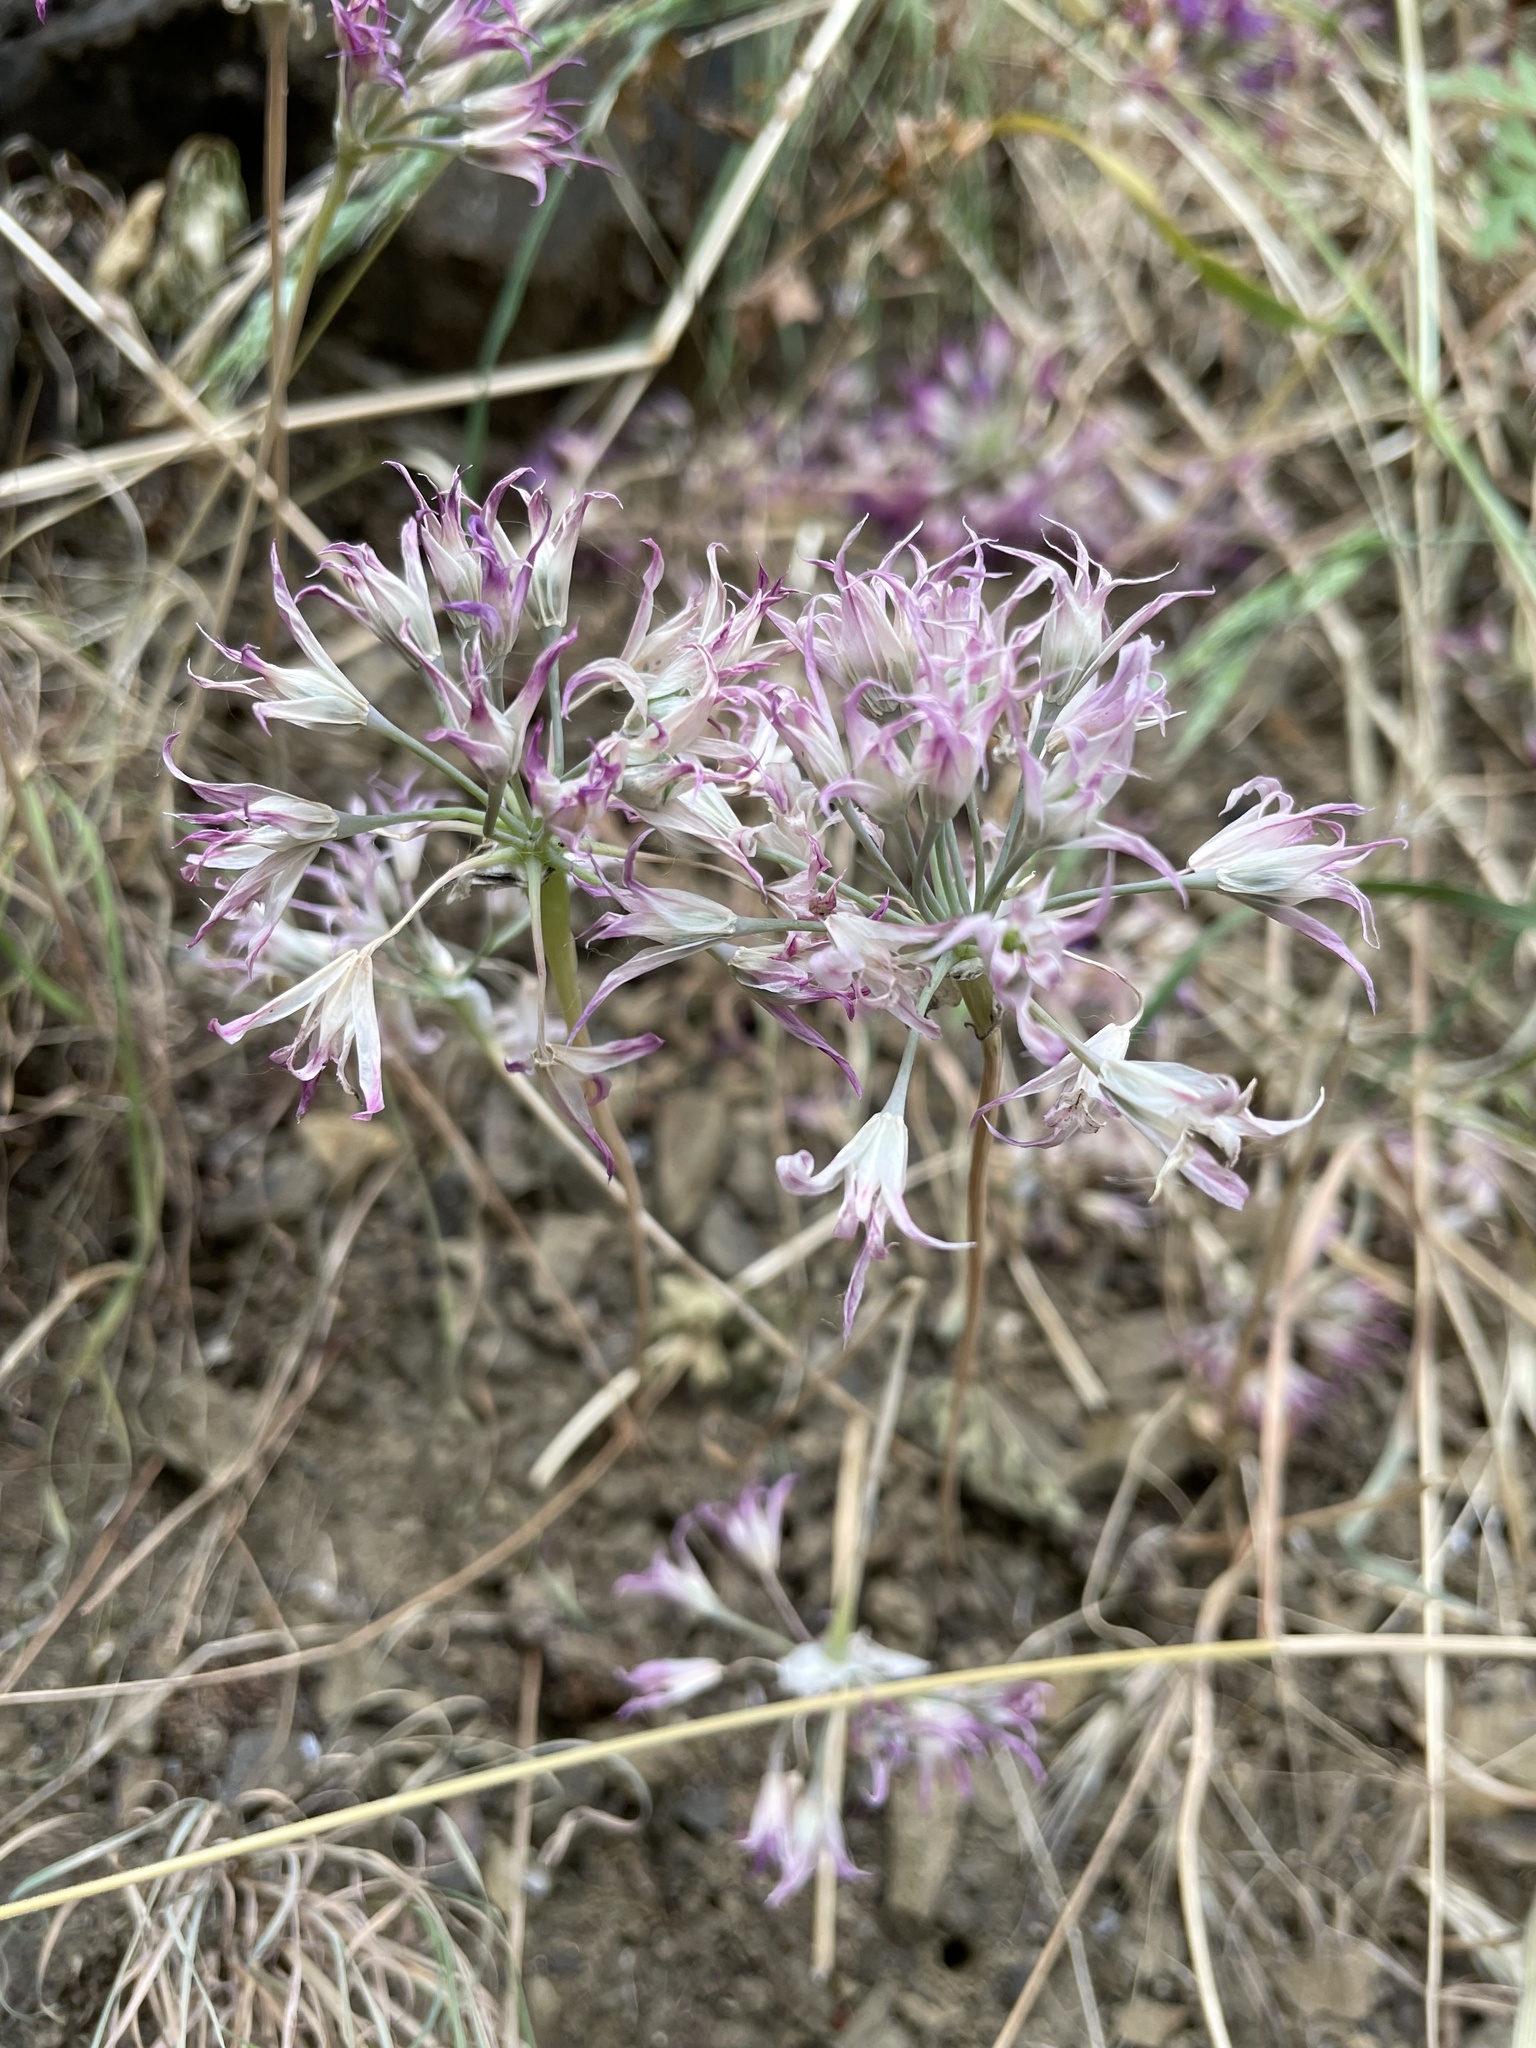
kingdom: Plantae
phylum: Tracheophyta
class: Liliopsida
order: Asparagales
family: Amaryllidaceae
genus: Allium
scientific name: Allium acuminatum
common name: Hooker's onion
